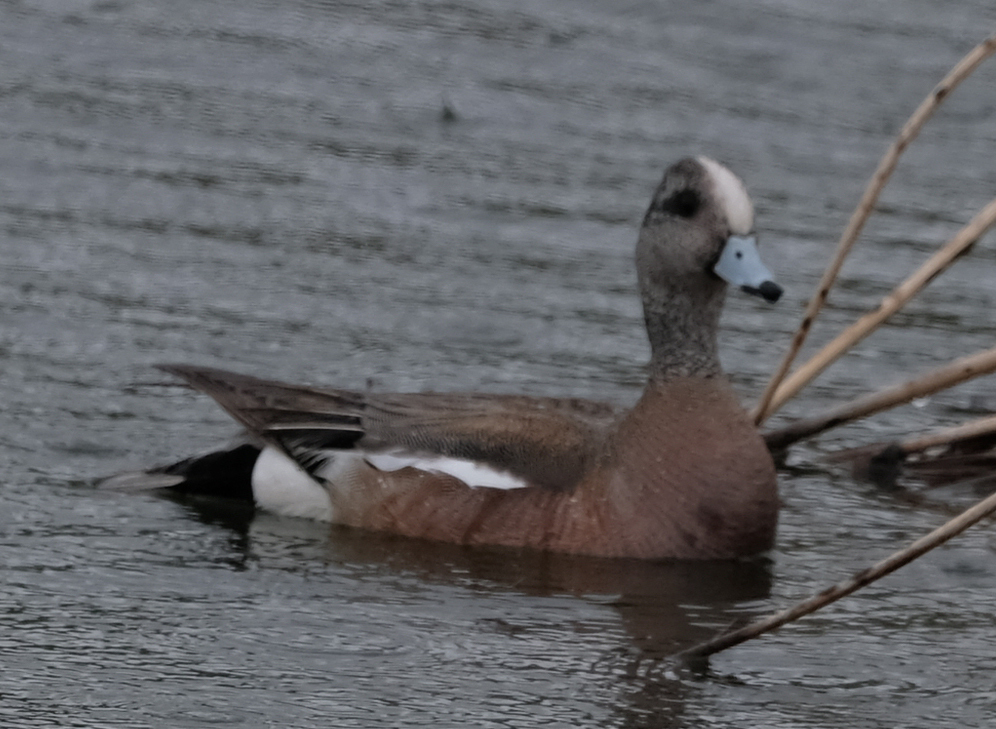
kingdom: Animalia
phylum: Chordata
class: Aves
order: Anseriformes
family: Anatidae
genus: Mareca
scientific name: Mareca americana
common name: American wigeon
